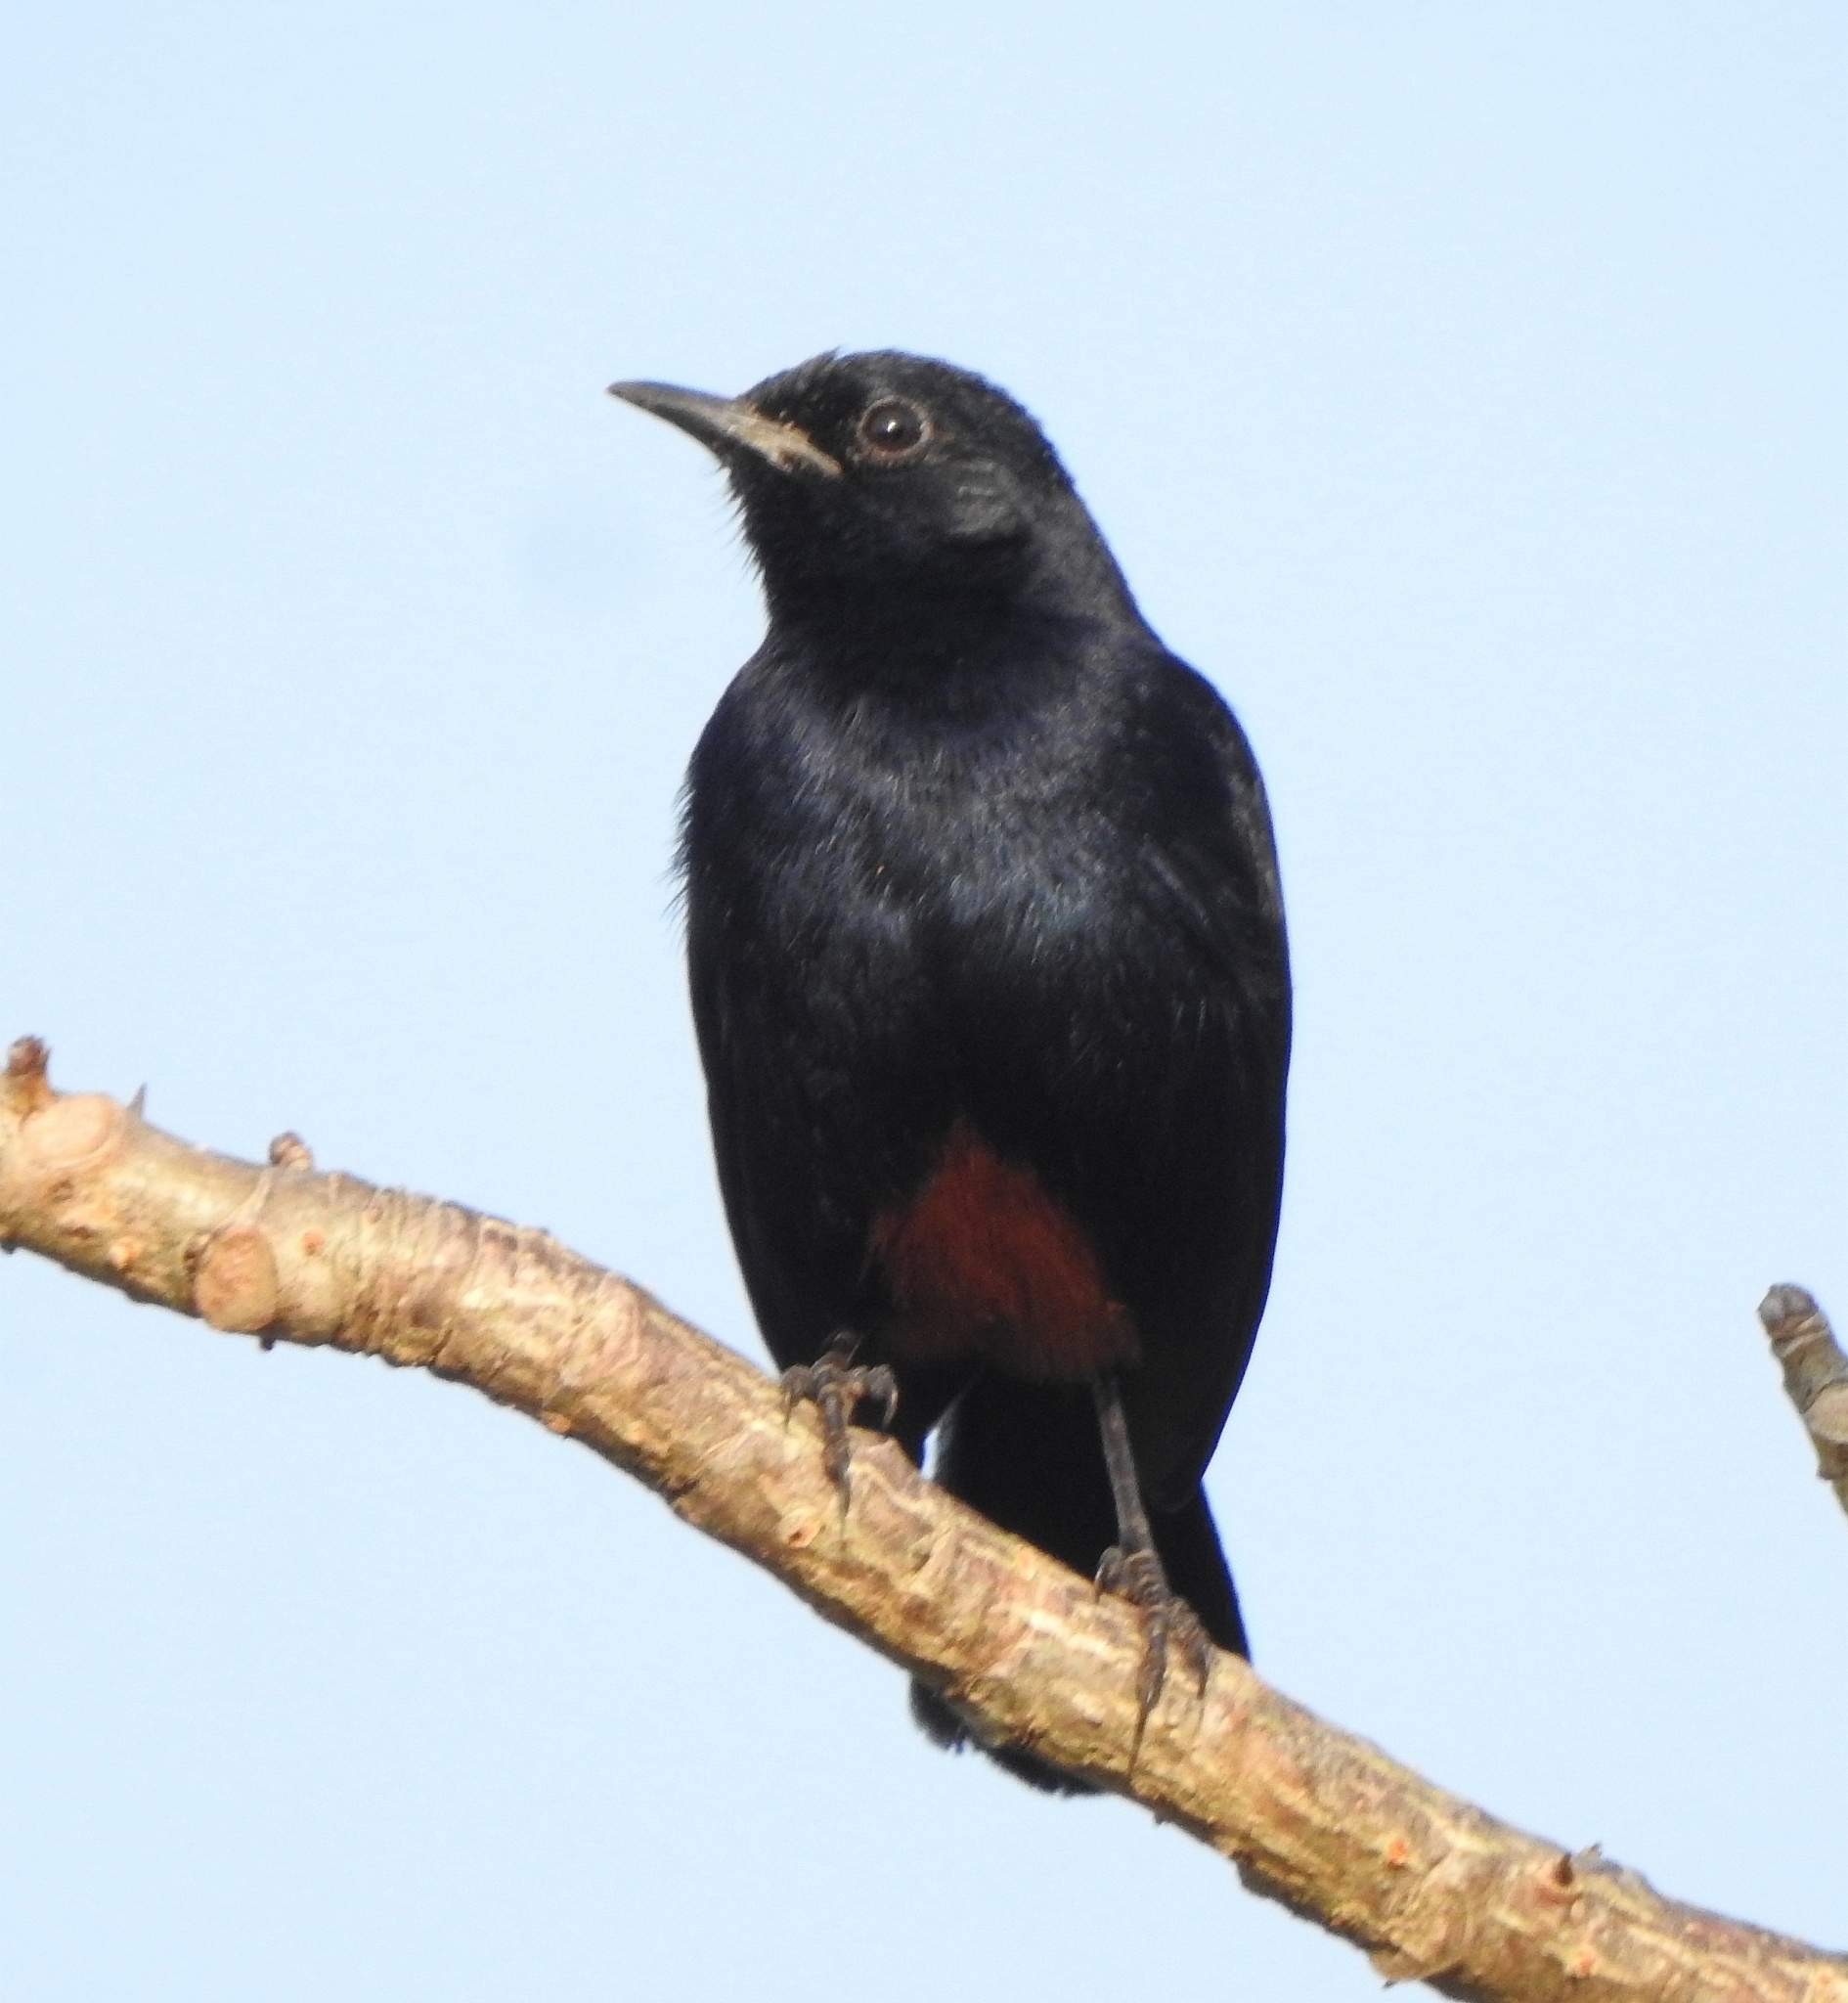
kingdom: Animalia
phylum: Chordata
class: Aves
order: Passeriformes
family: Muscicapidae
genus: Saxicoloides
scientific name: Saxicoloides fulicatus
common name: Indian robin
